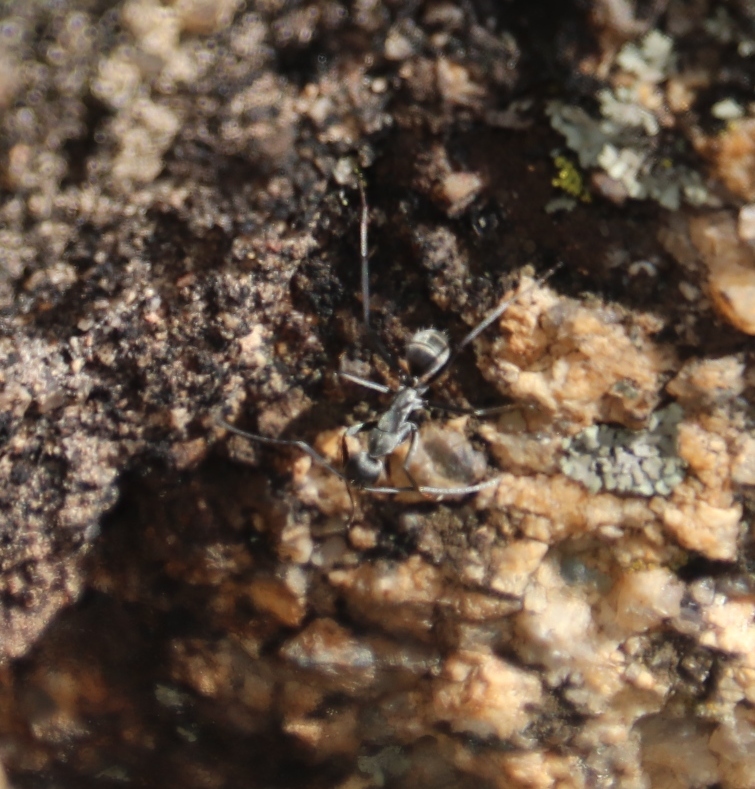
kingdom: Animalia
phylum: Arthropoda
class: Insecta
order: Hymenoptera
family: Formicidae
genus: Camponotus
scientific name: Camponotus cinctellus
